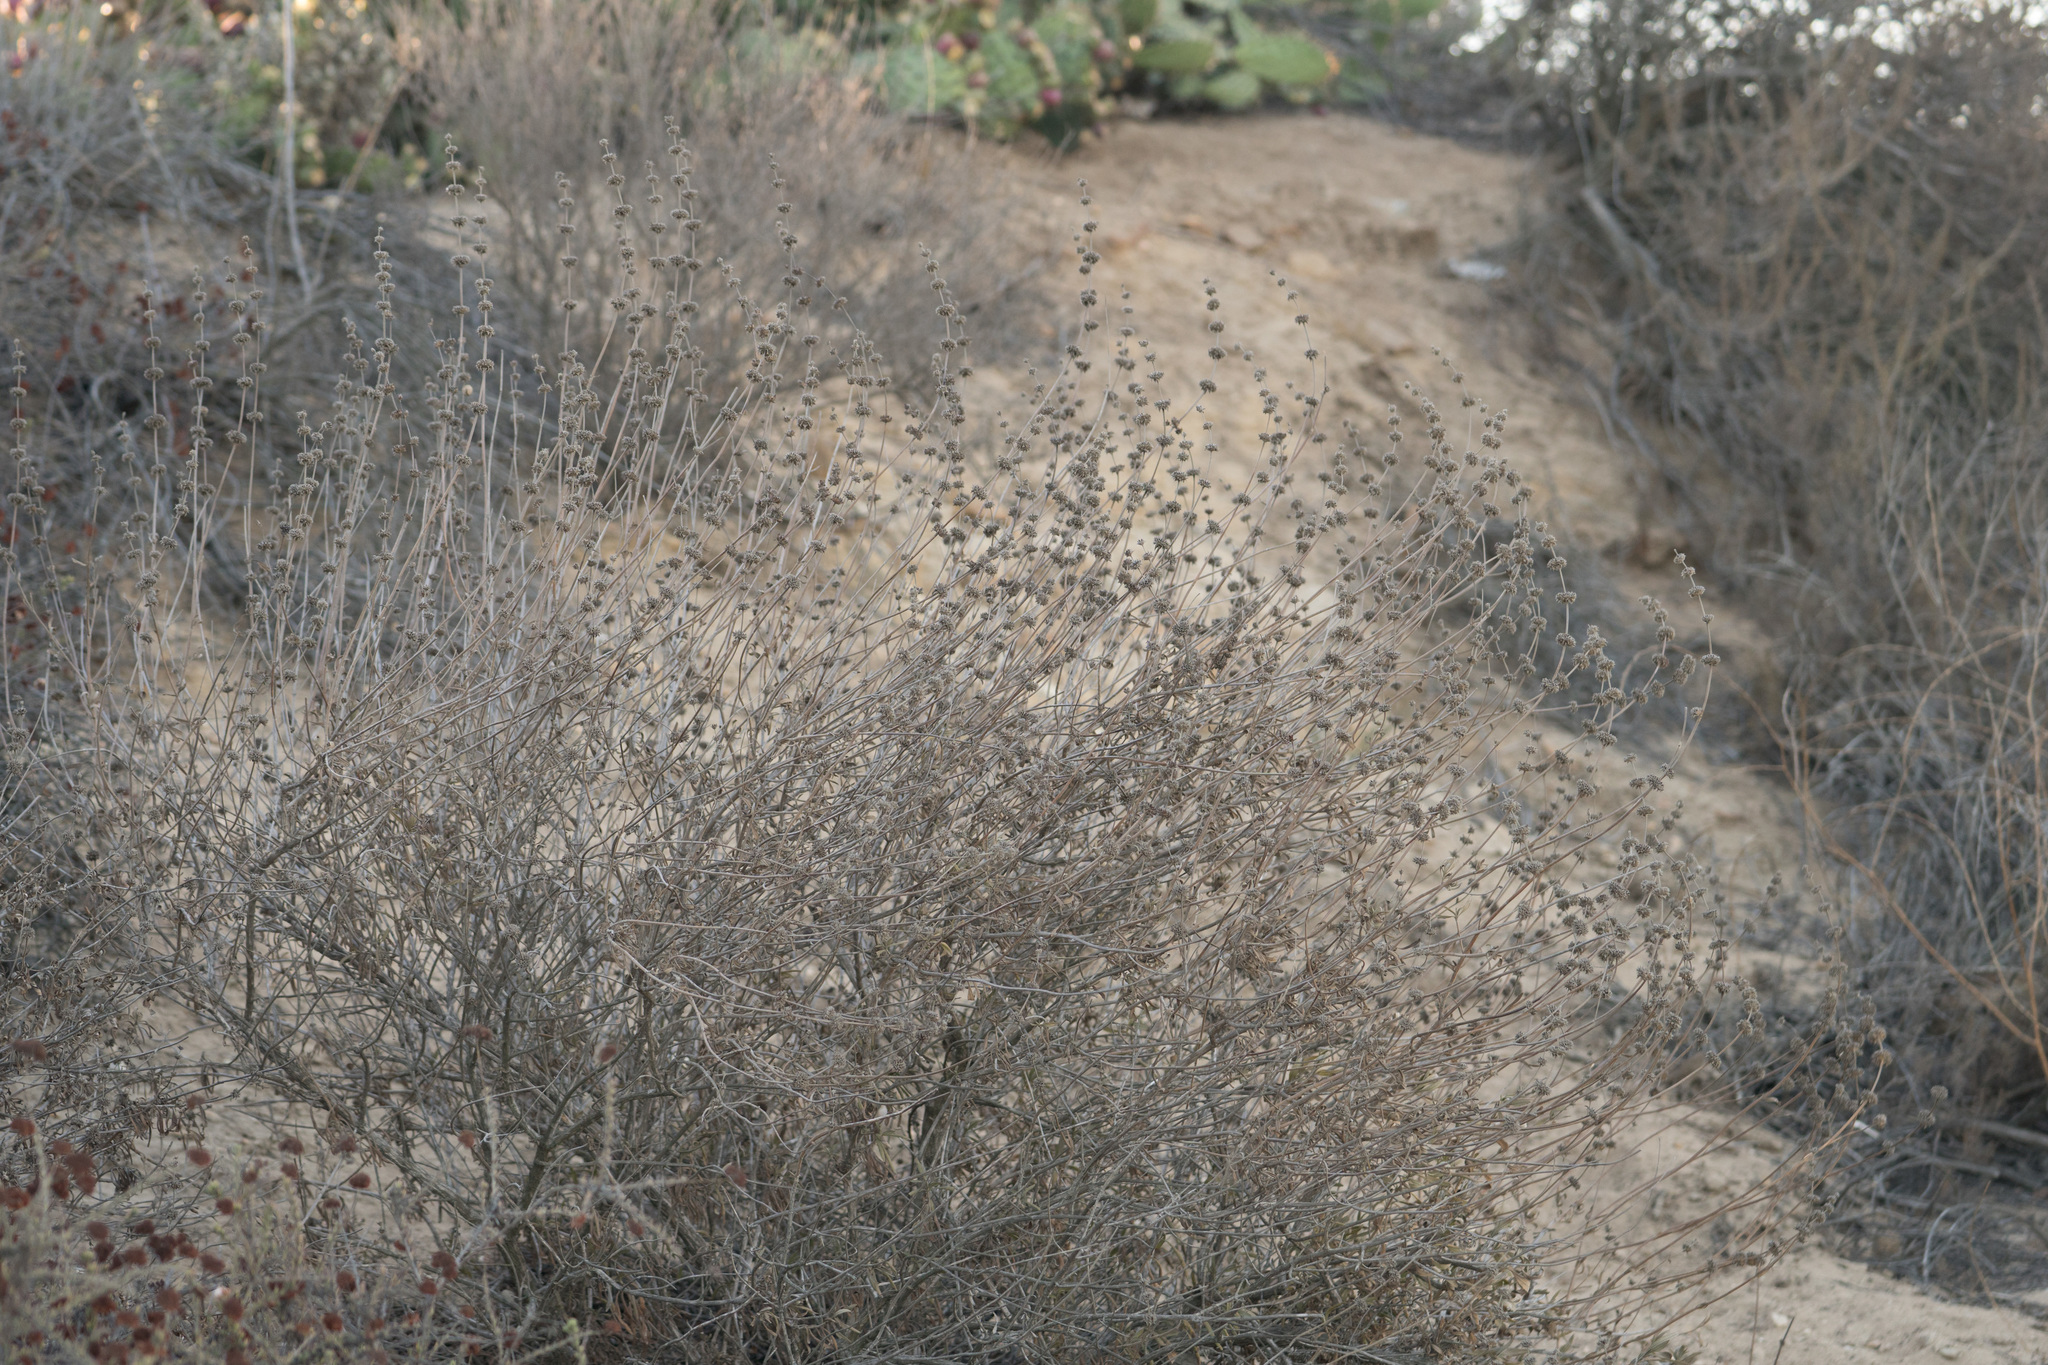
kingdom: Plantae
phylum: Tracheophyta
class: Magnoliopsida
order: Lamiales
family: Lamiaceae
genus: Salvia
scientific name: Salvia mellifera
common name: Black sage
